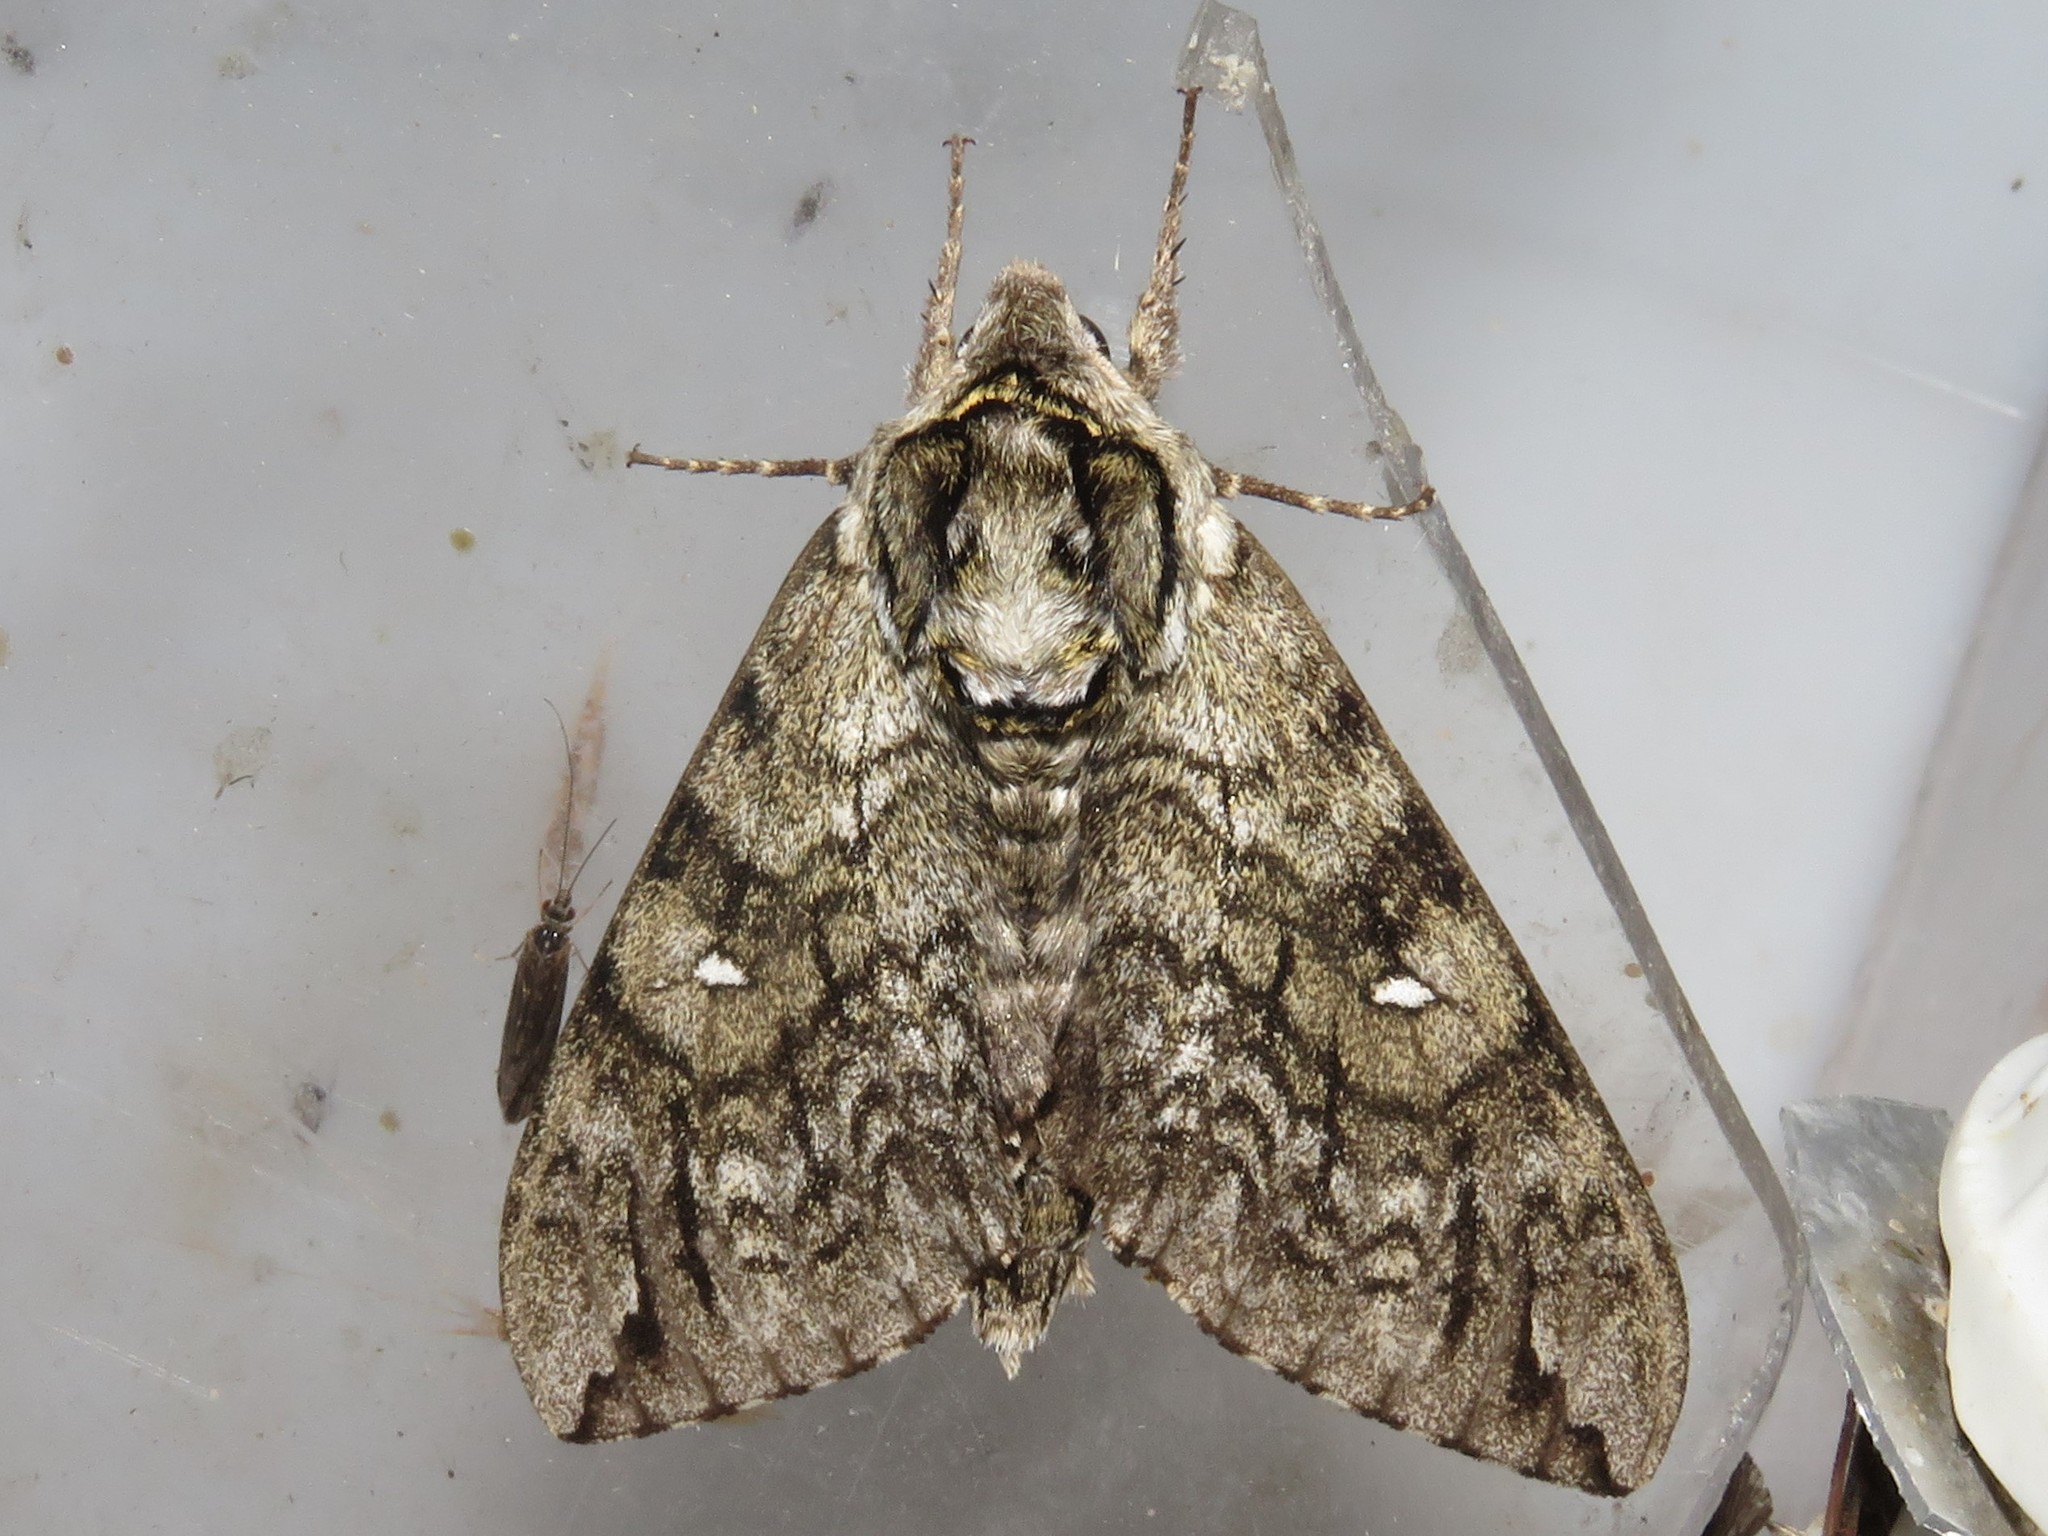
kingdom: Animalia
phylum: Arthropoda
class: Insecta
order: Lepidoptera
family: Sphingidae
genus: Ceratomia
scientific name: Ceratomia undulosa
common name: Waved sphinx
